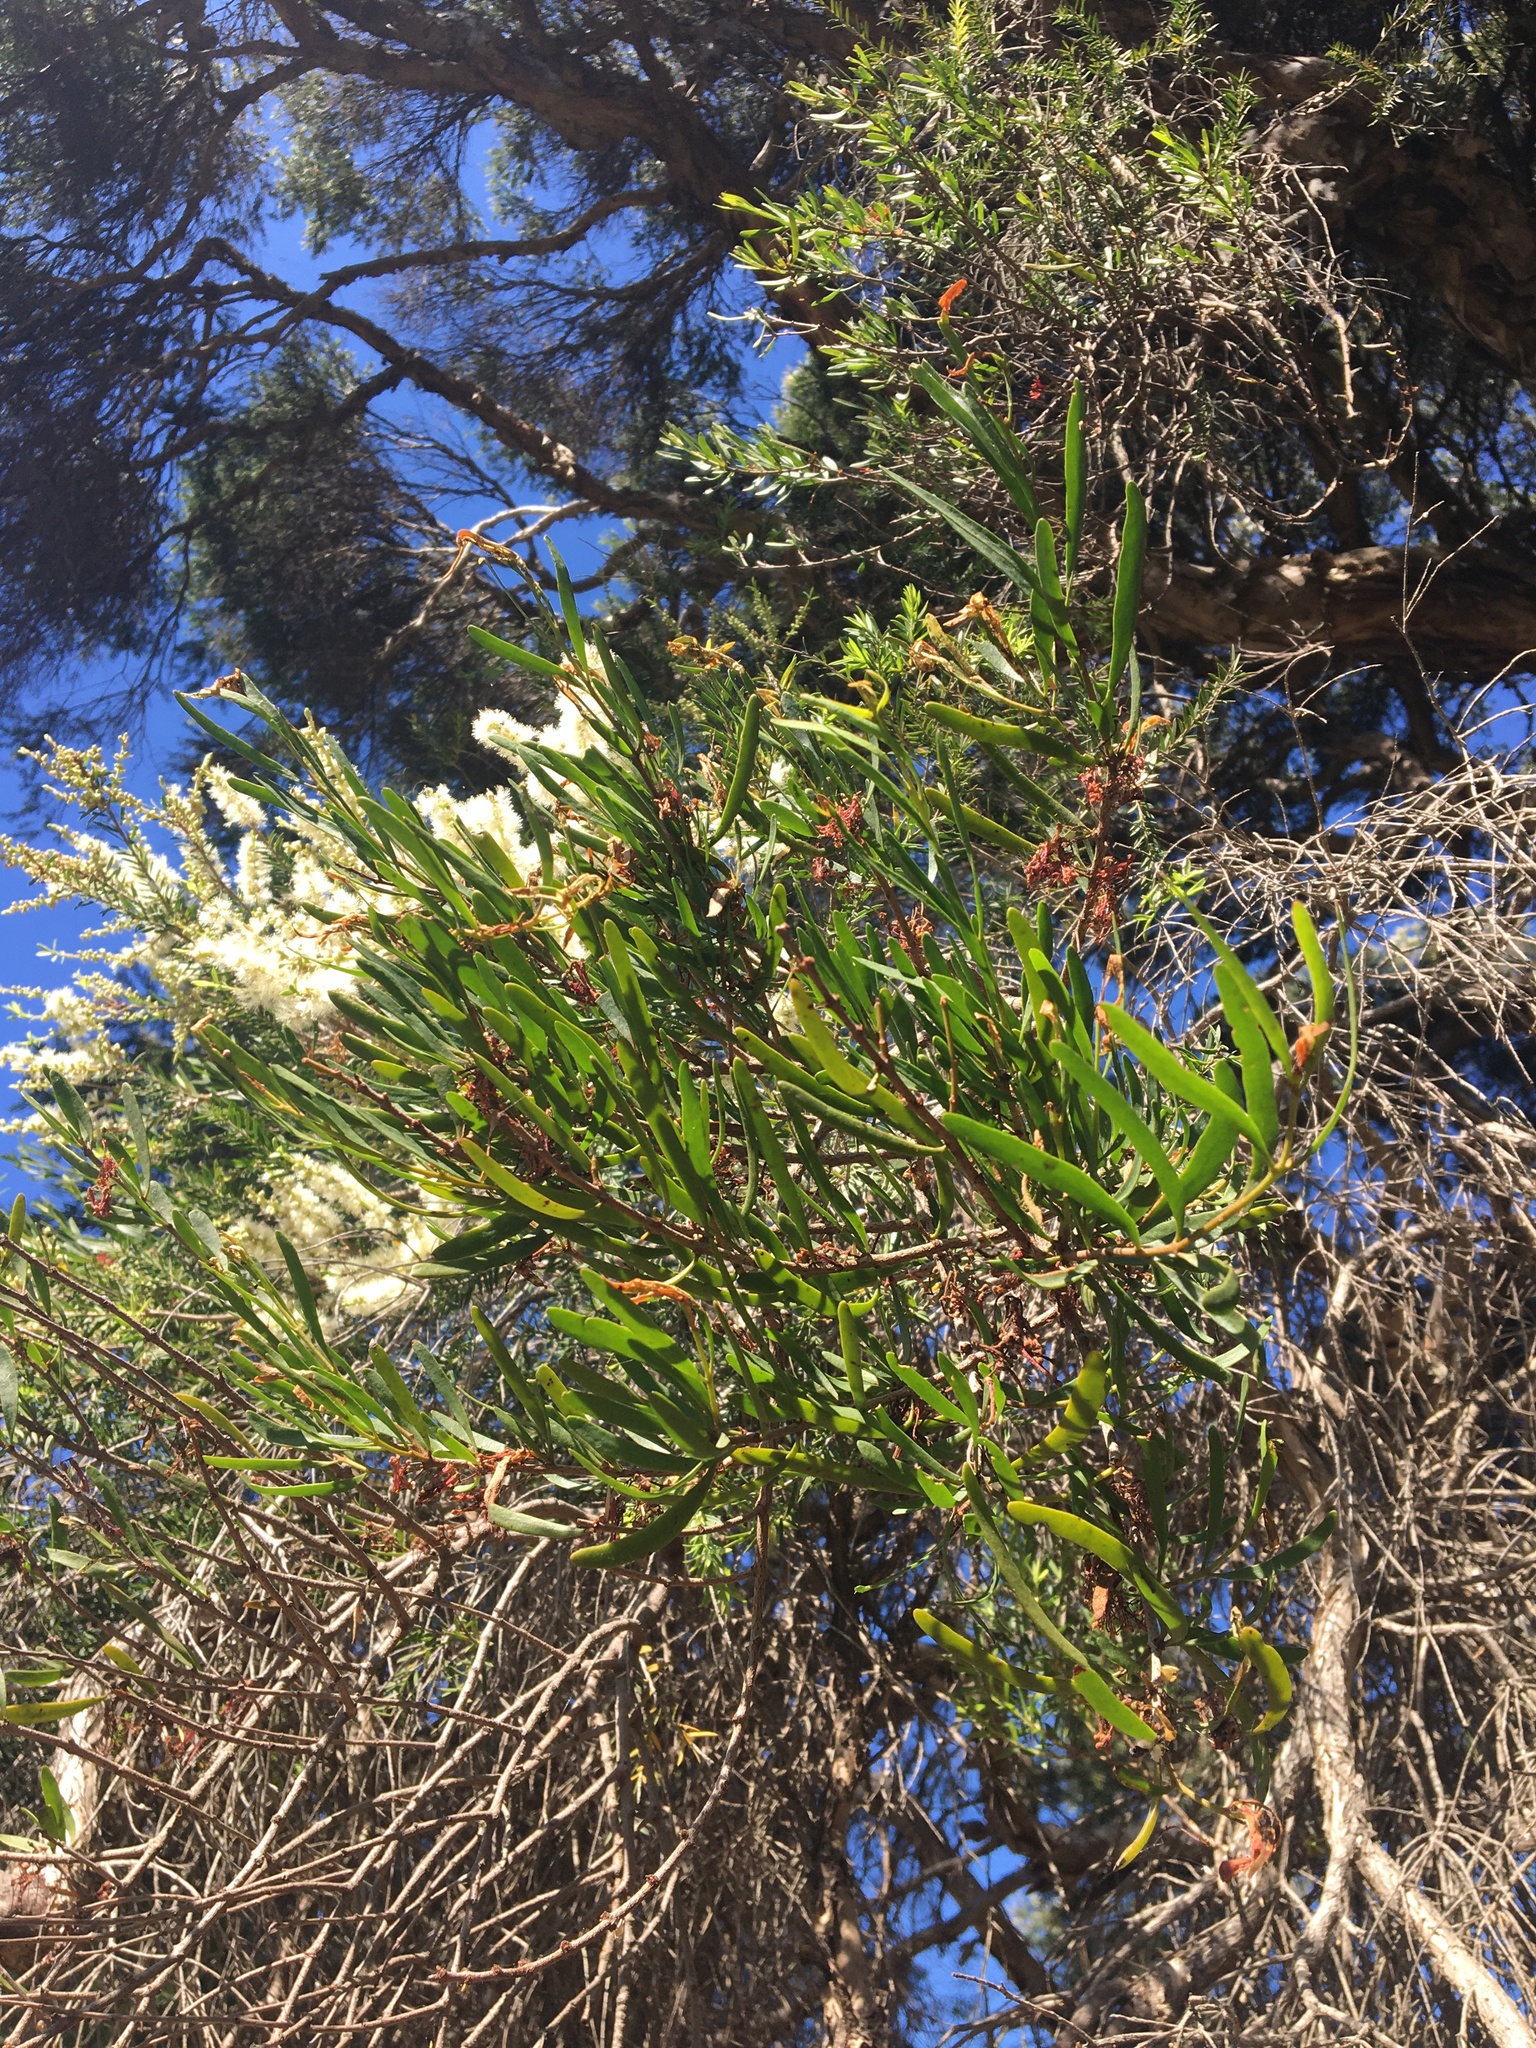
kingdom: Plantae
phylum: Tracheophyta
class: Magnoliopsida
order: Santalales
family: Loranthaceae
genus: Amyema
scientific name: Amyema gaudichaudii
